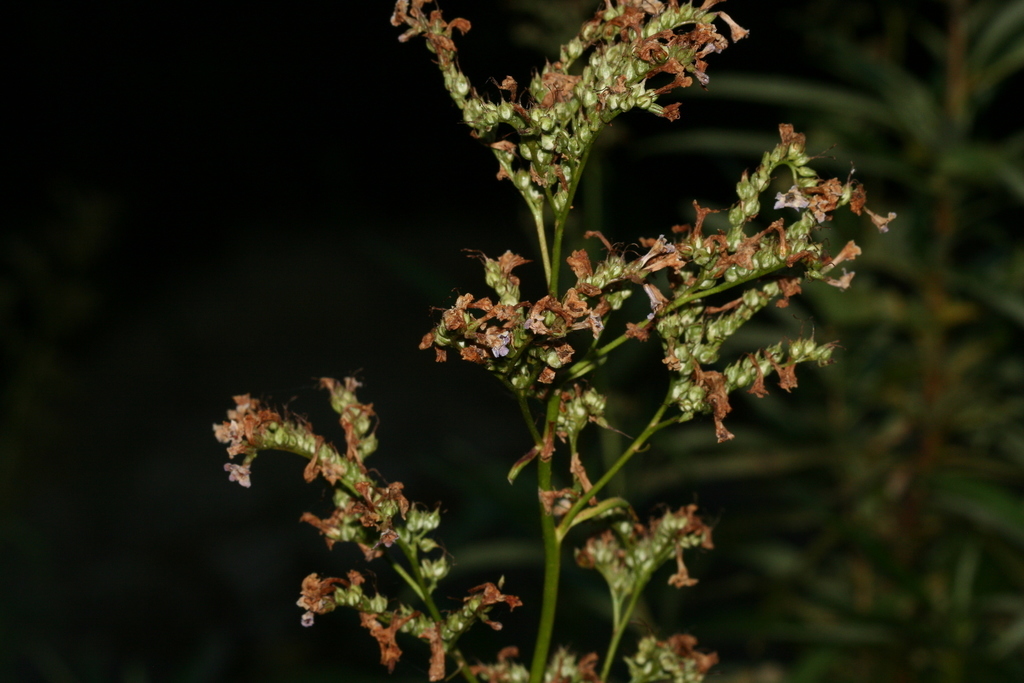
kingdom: Plantae
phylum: Tracheophyta
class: Magnoliopsida
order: Boraginales
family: Namaceae
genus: Eriodictyon
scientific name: Eriodictyon californicum
